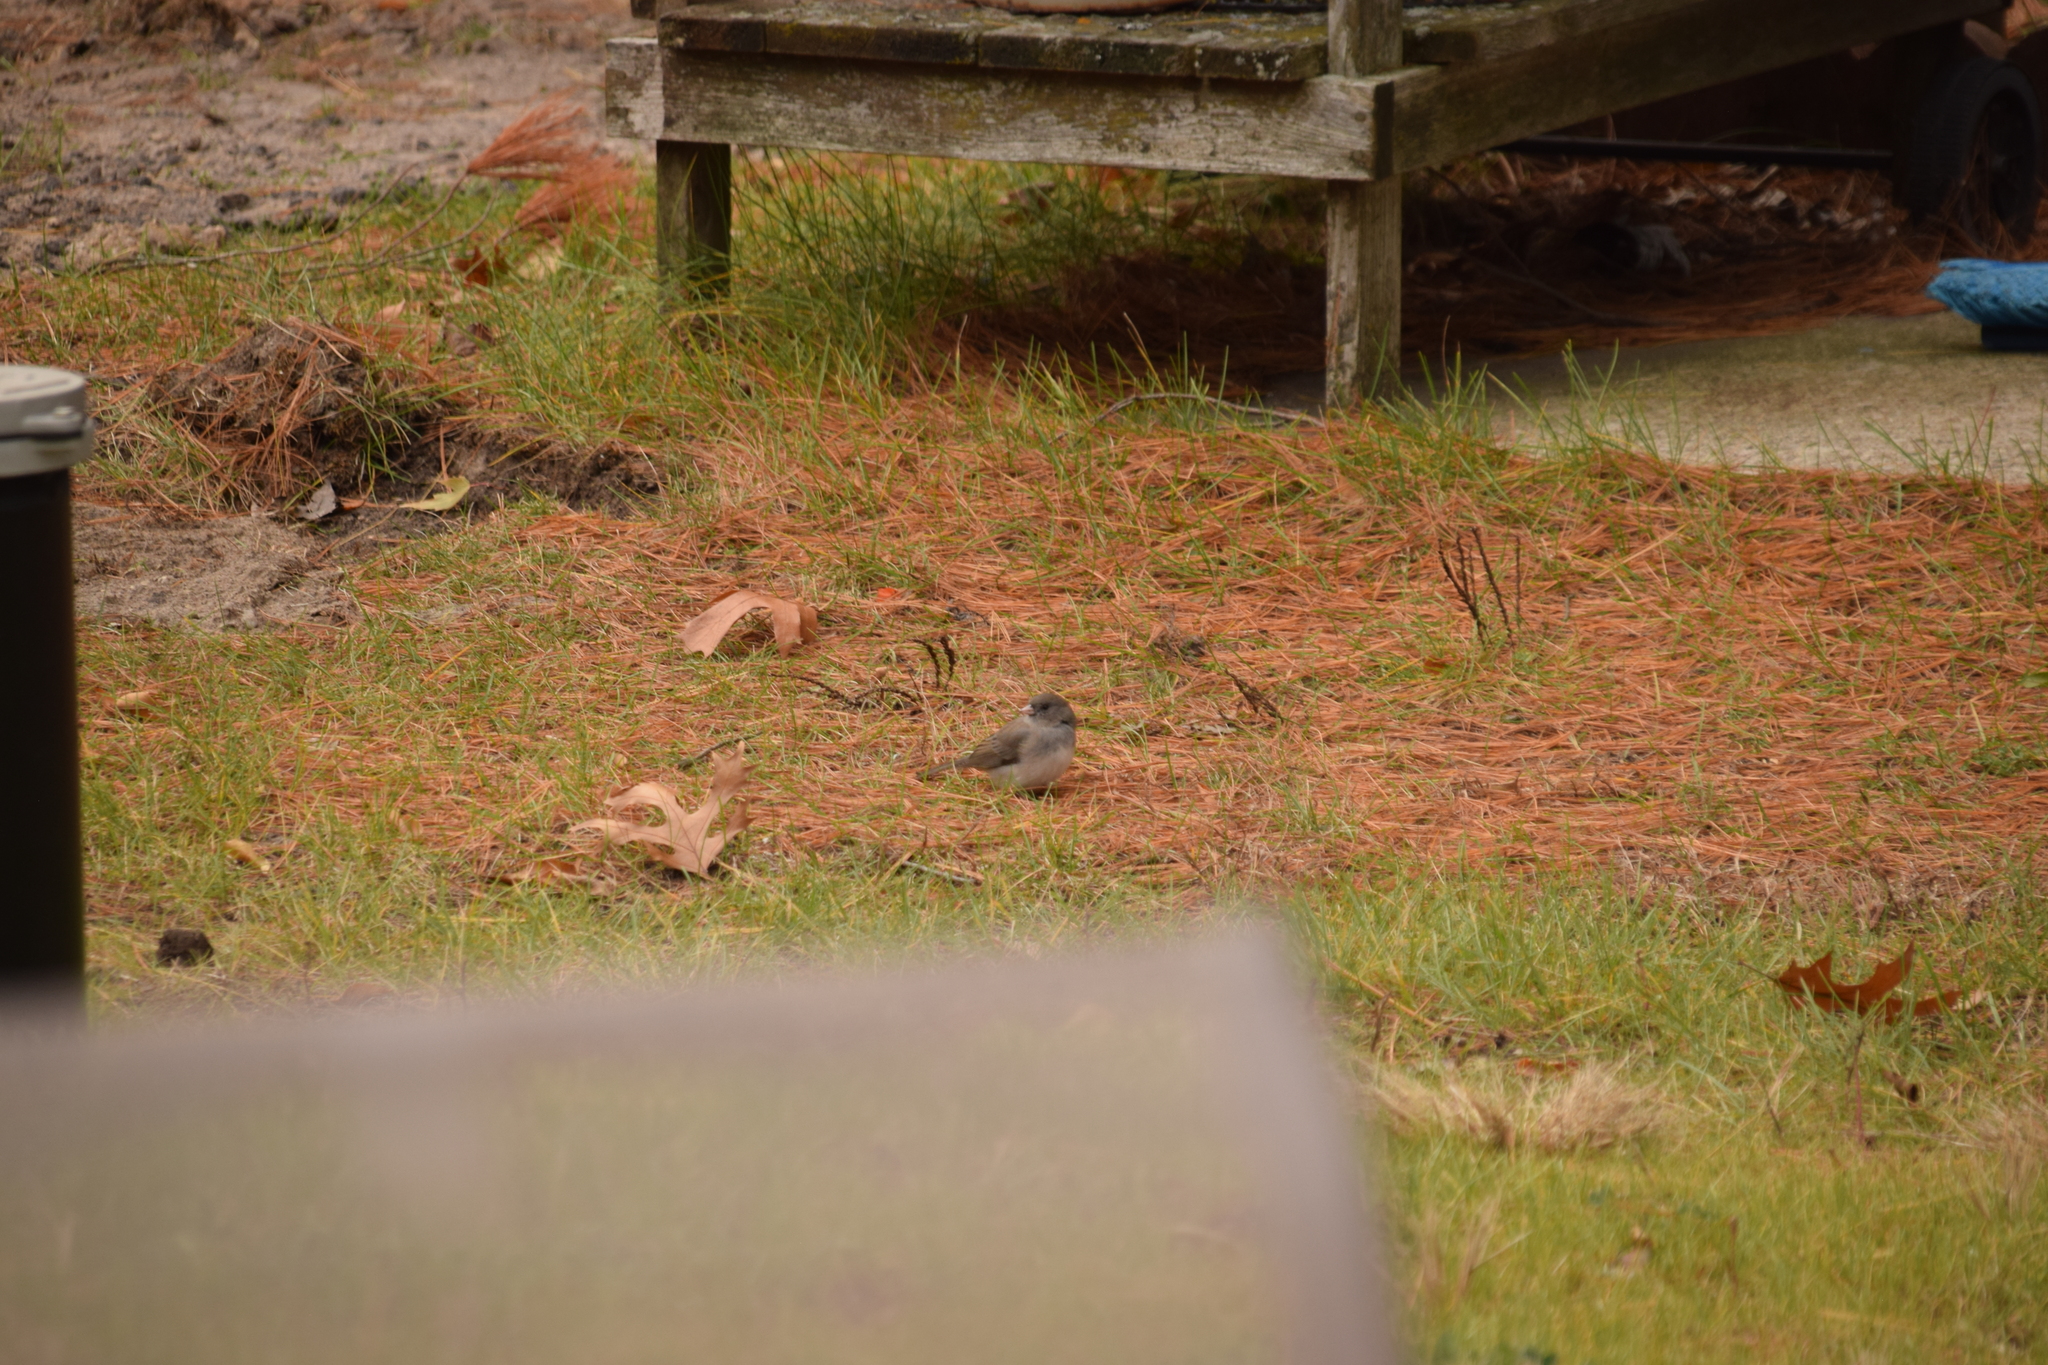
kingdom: Animalia
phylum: Chordata
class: Aves
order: Passeriformes
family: Passerellidae
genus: Junco
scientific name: Junco hyemalis
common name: Dark-eyed junco
